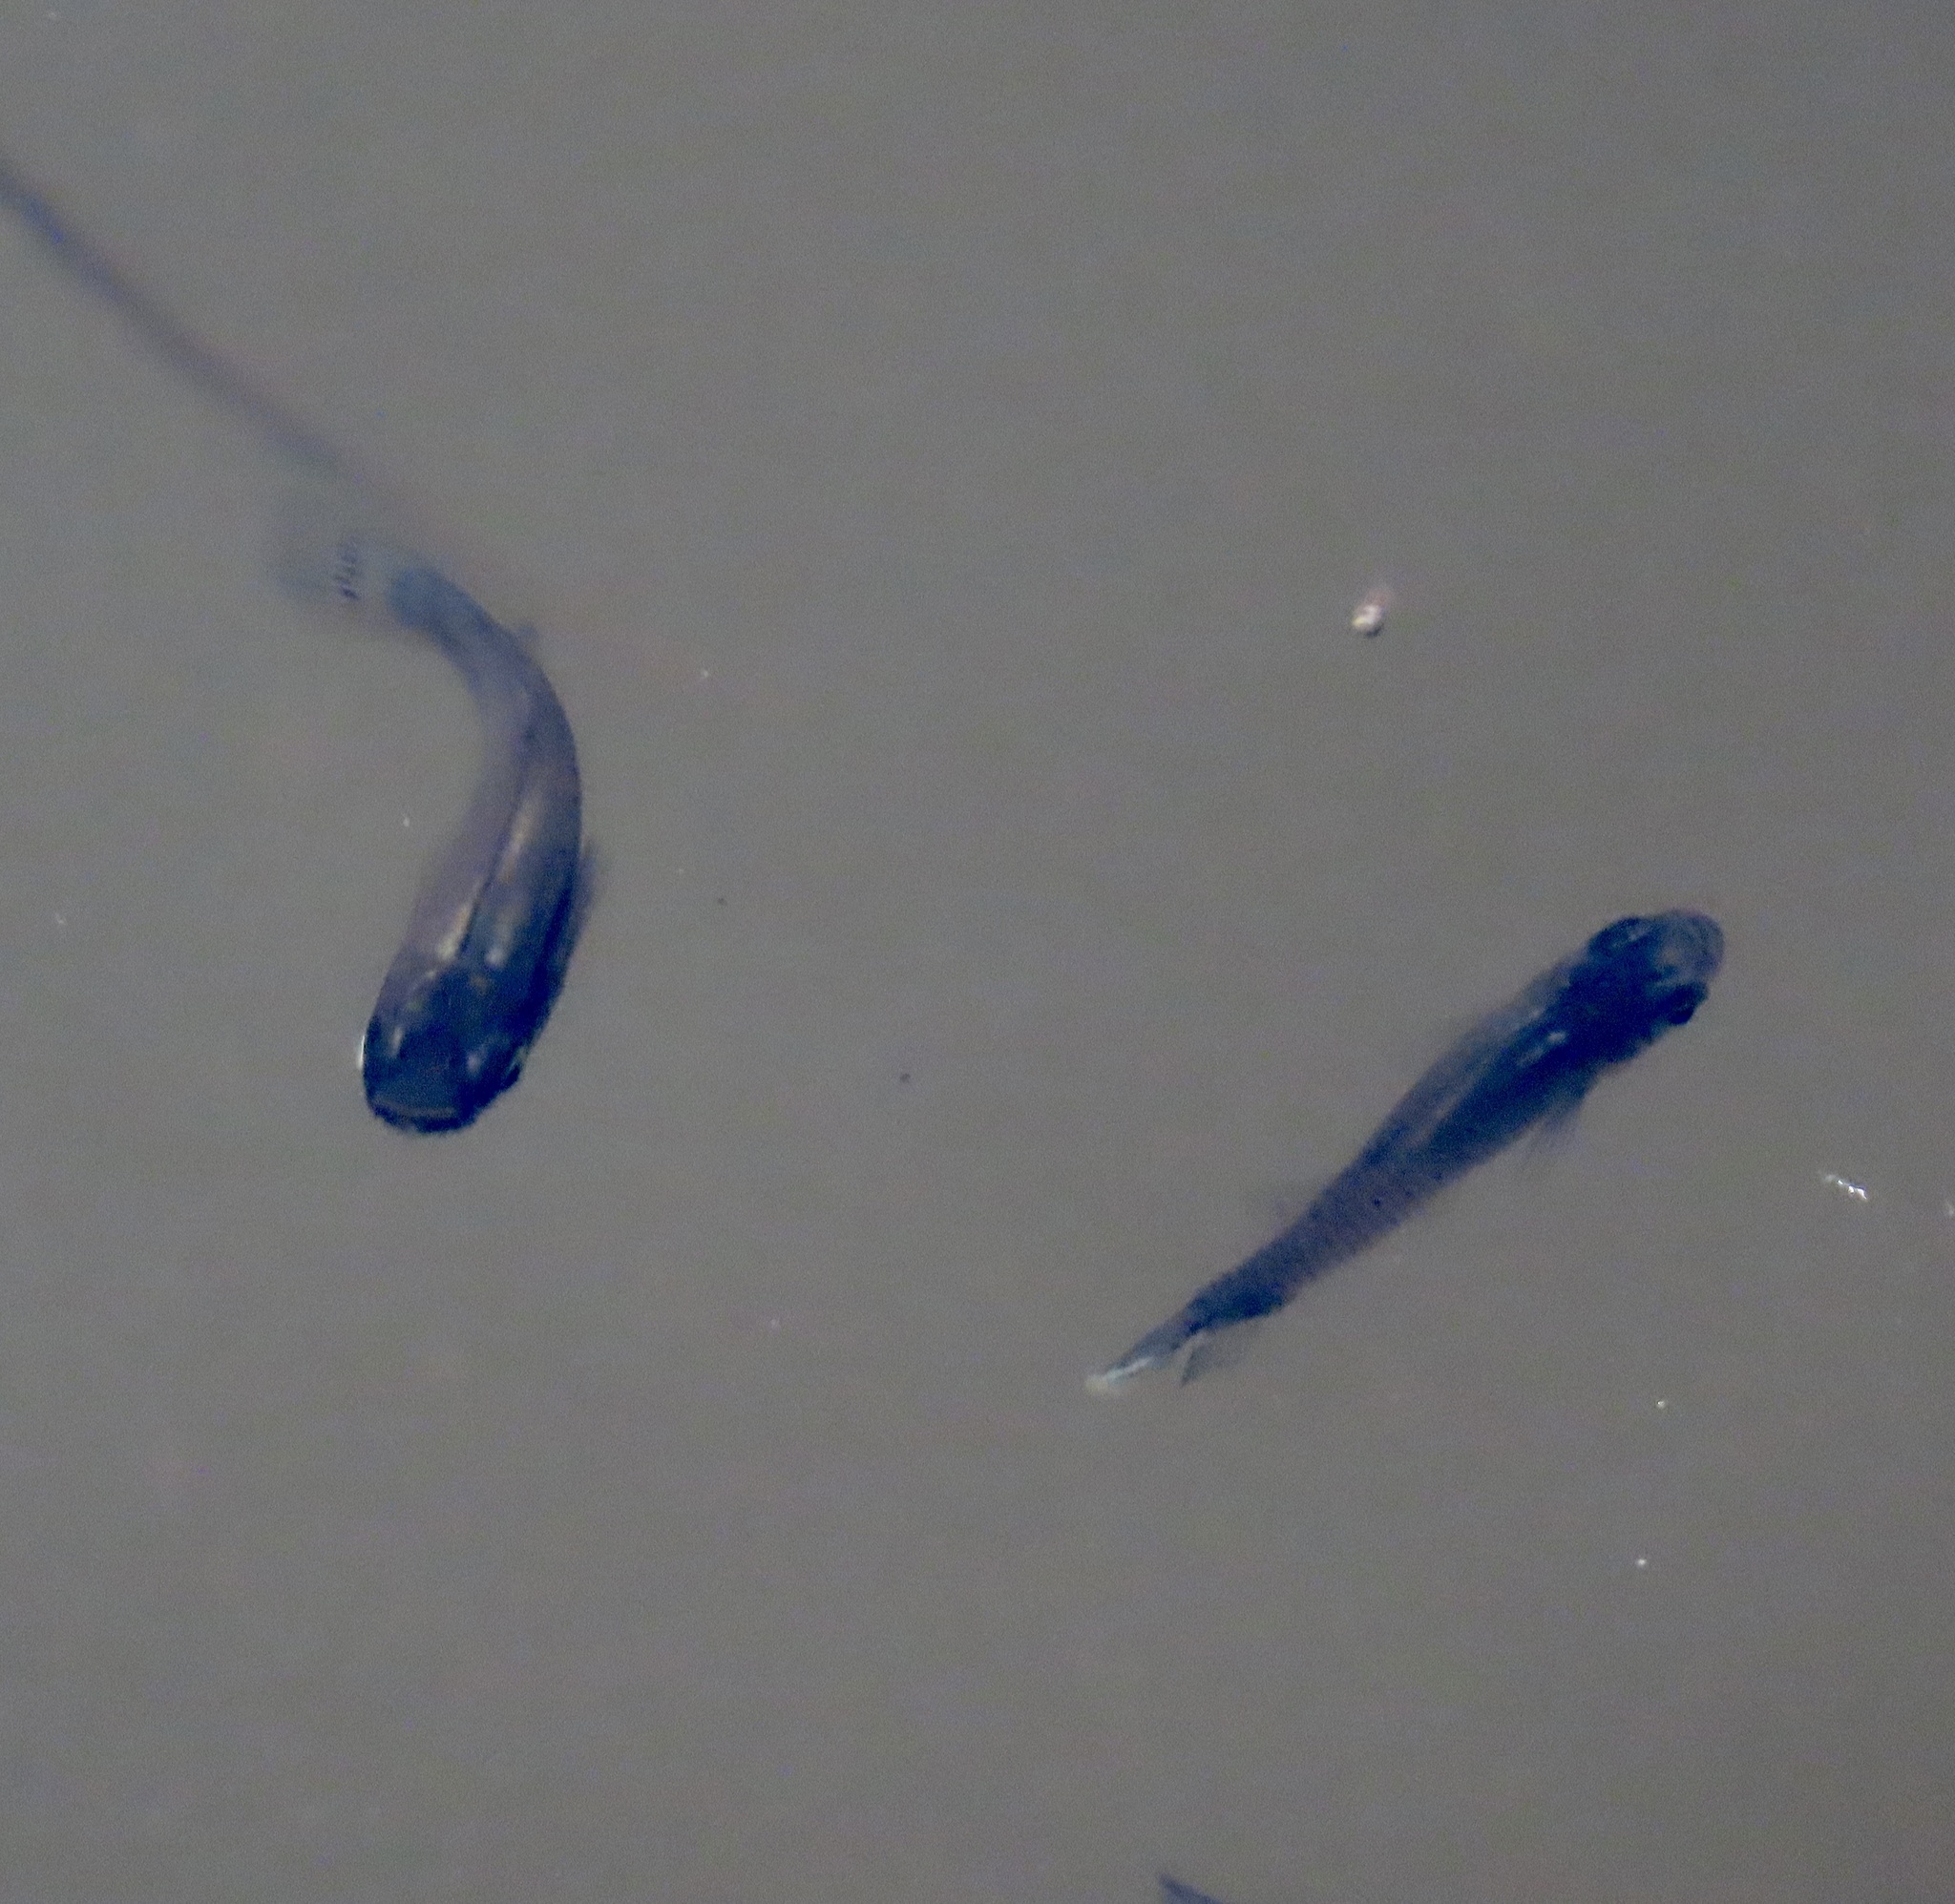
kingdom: Animalia
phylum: Chordata
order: Cyprinodontiformes
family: Poeciliidae
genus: Gambusia
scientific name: Gambusia punctata
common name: Cuban gambusia
